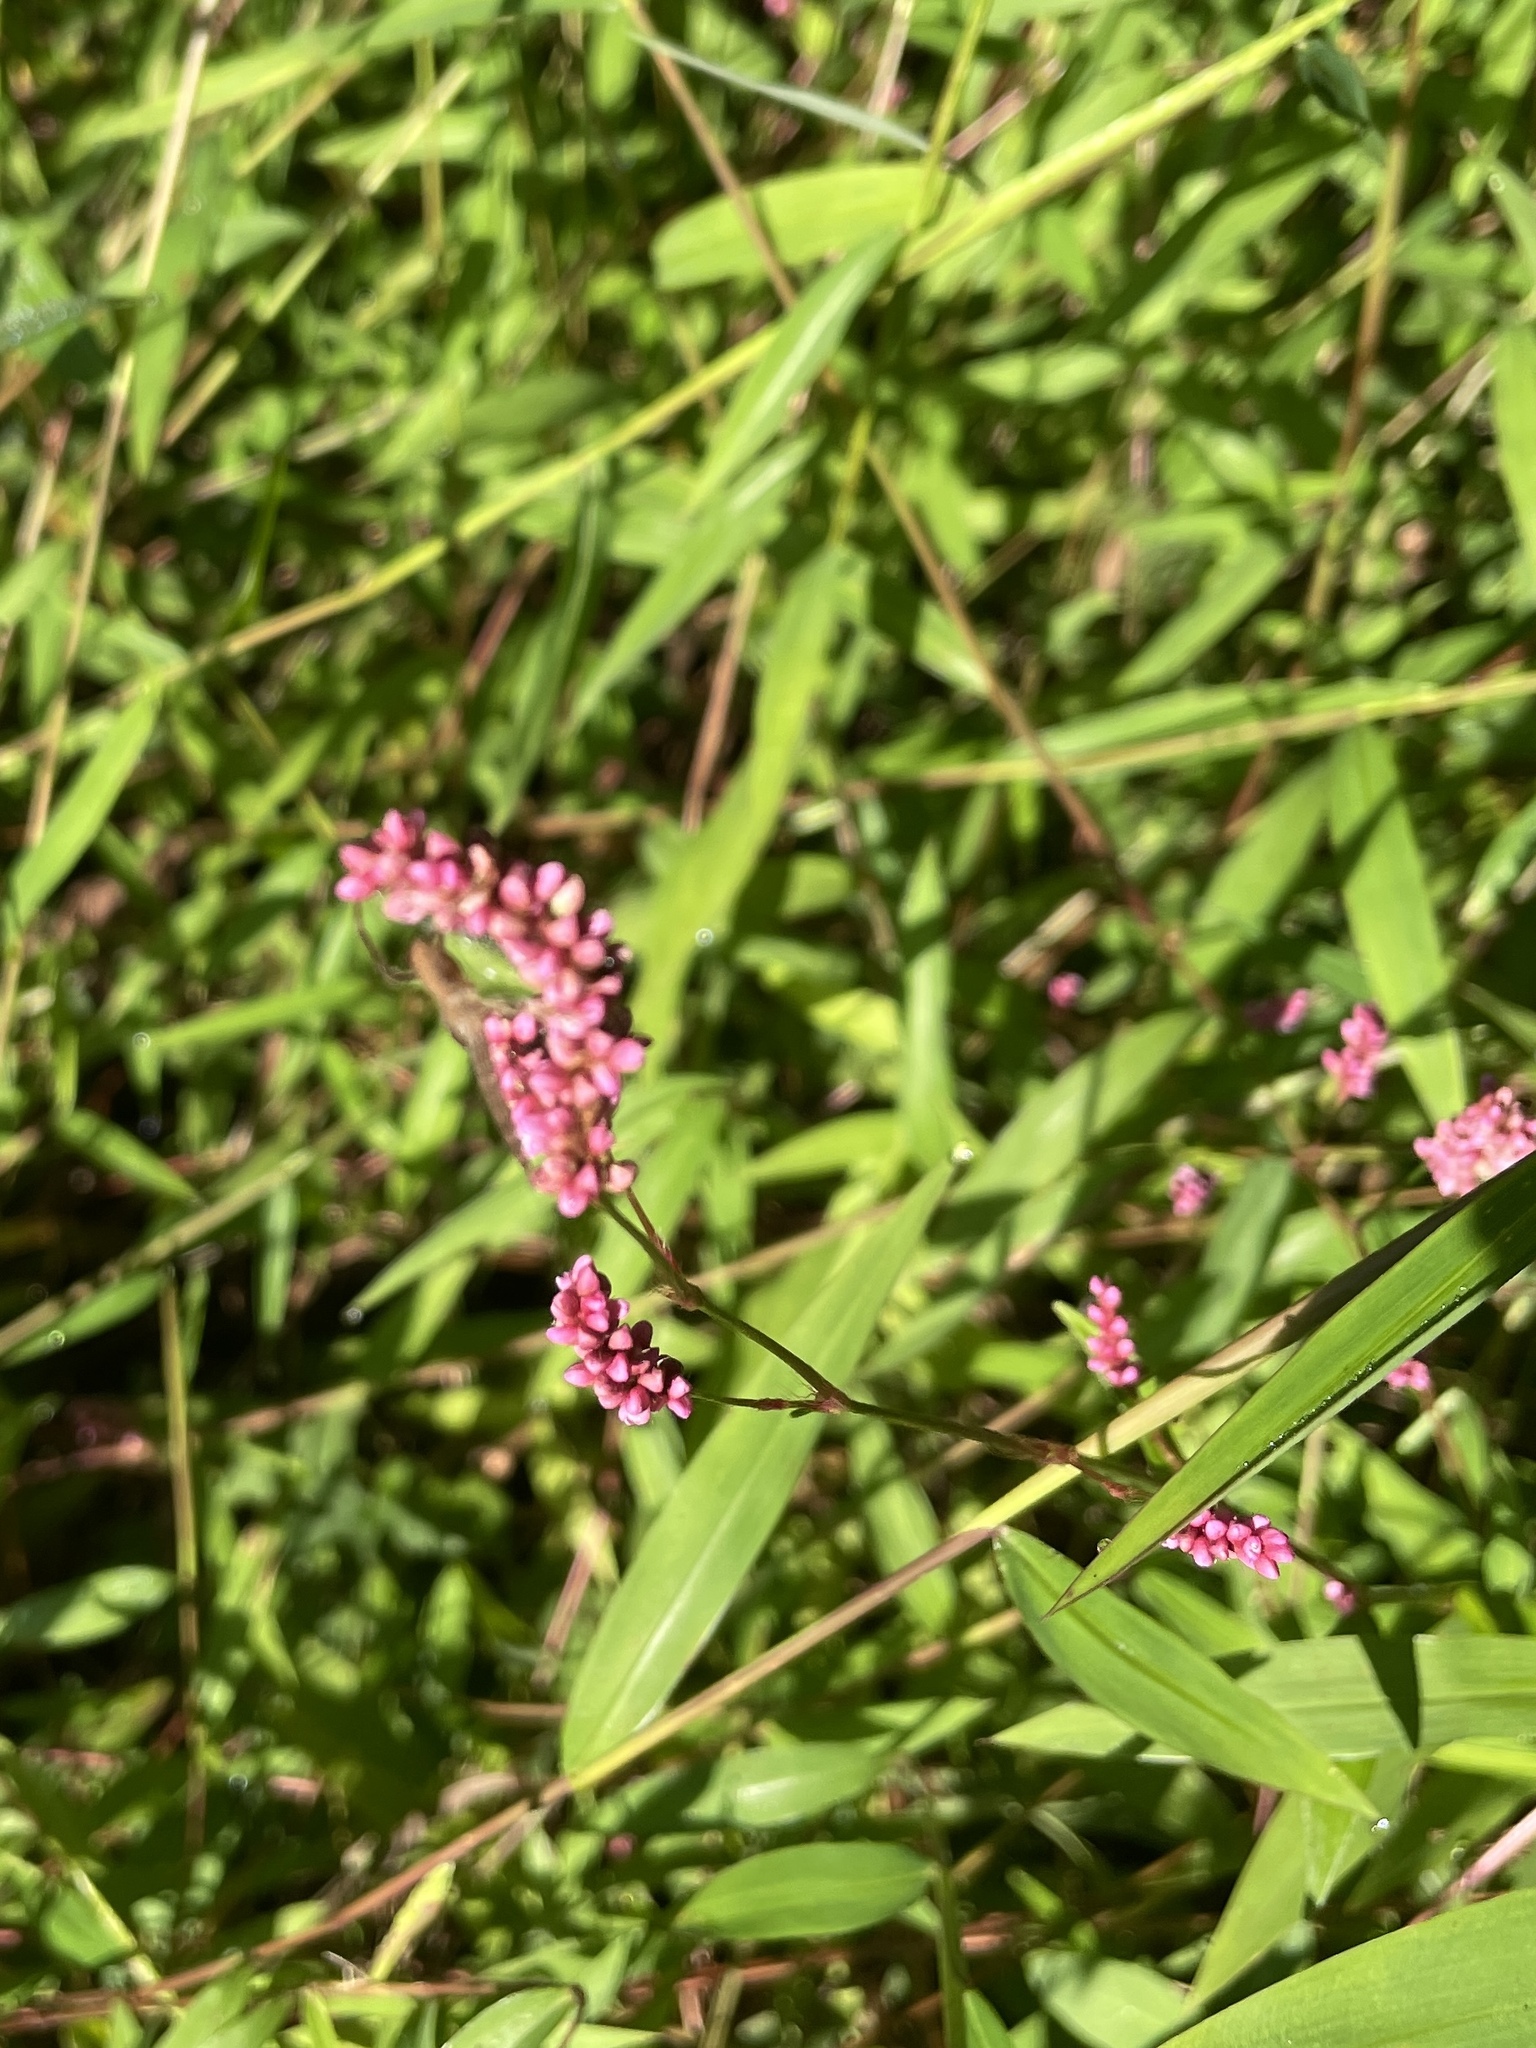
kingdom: Plantae
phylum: Tracheophyta
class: Magnoliopsida
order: Caryophyllales
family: Polygonaceae
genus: Persicaria
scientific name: Persicaria longiseta
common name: Bristly lady's-thumb
